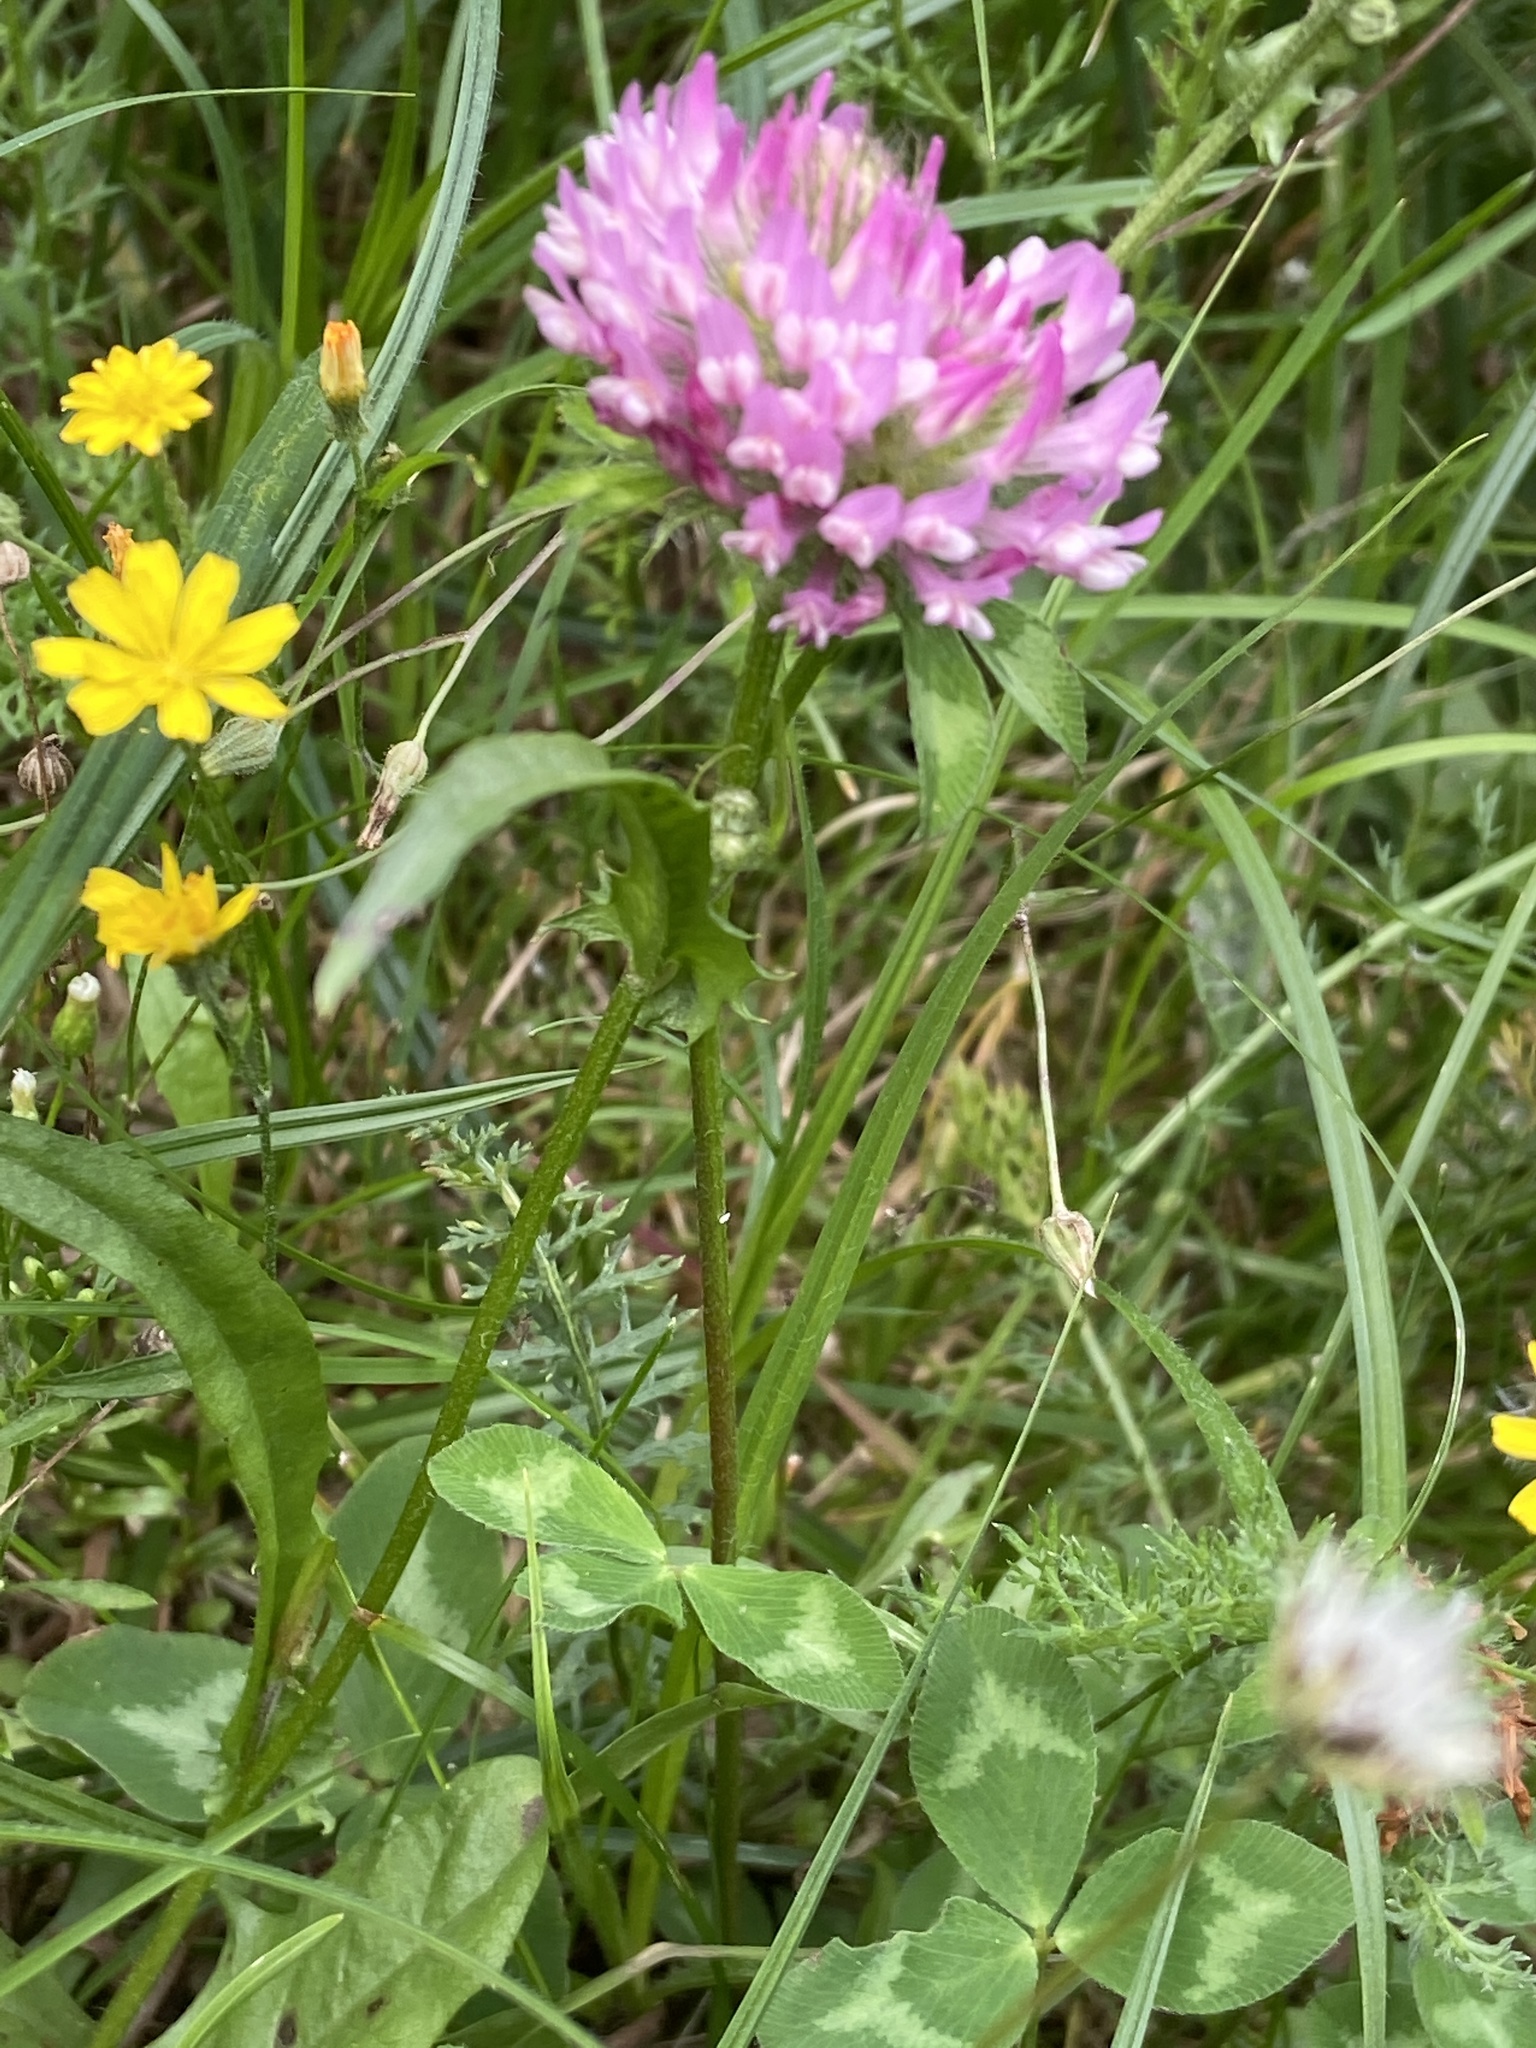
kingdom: Plantae
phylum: Tracheophyta
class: Magnoliopsida
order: Fabales
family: Fabaceae
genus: Trifolium
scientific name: Trifolium pratense
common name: Red clover
